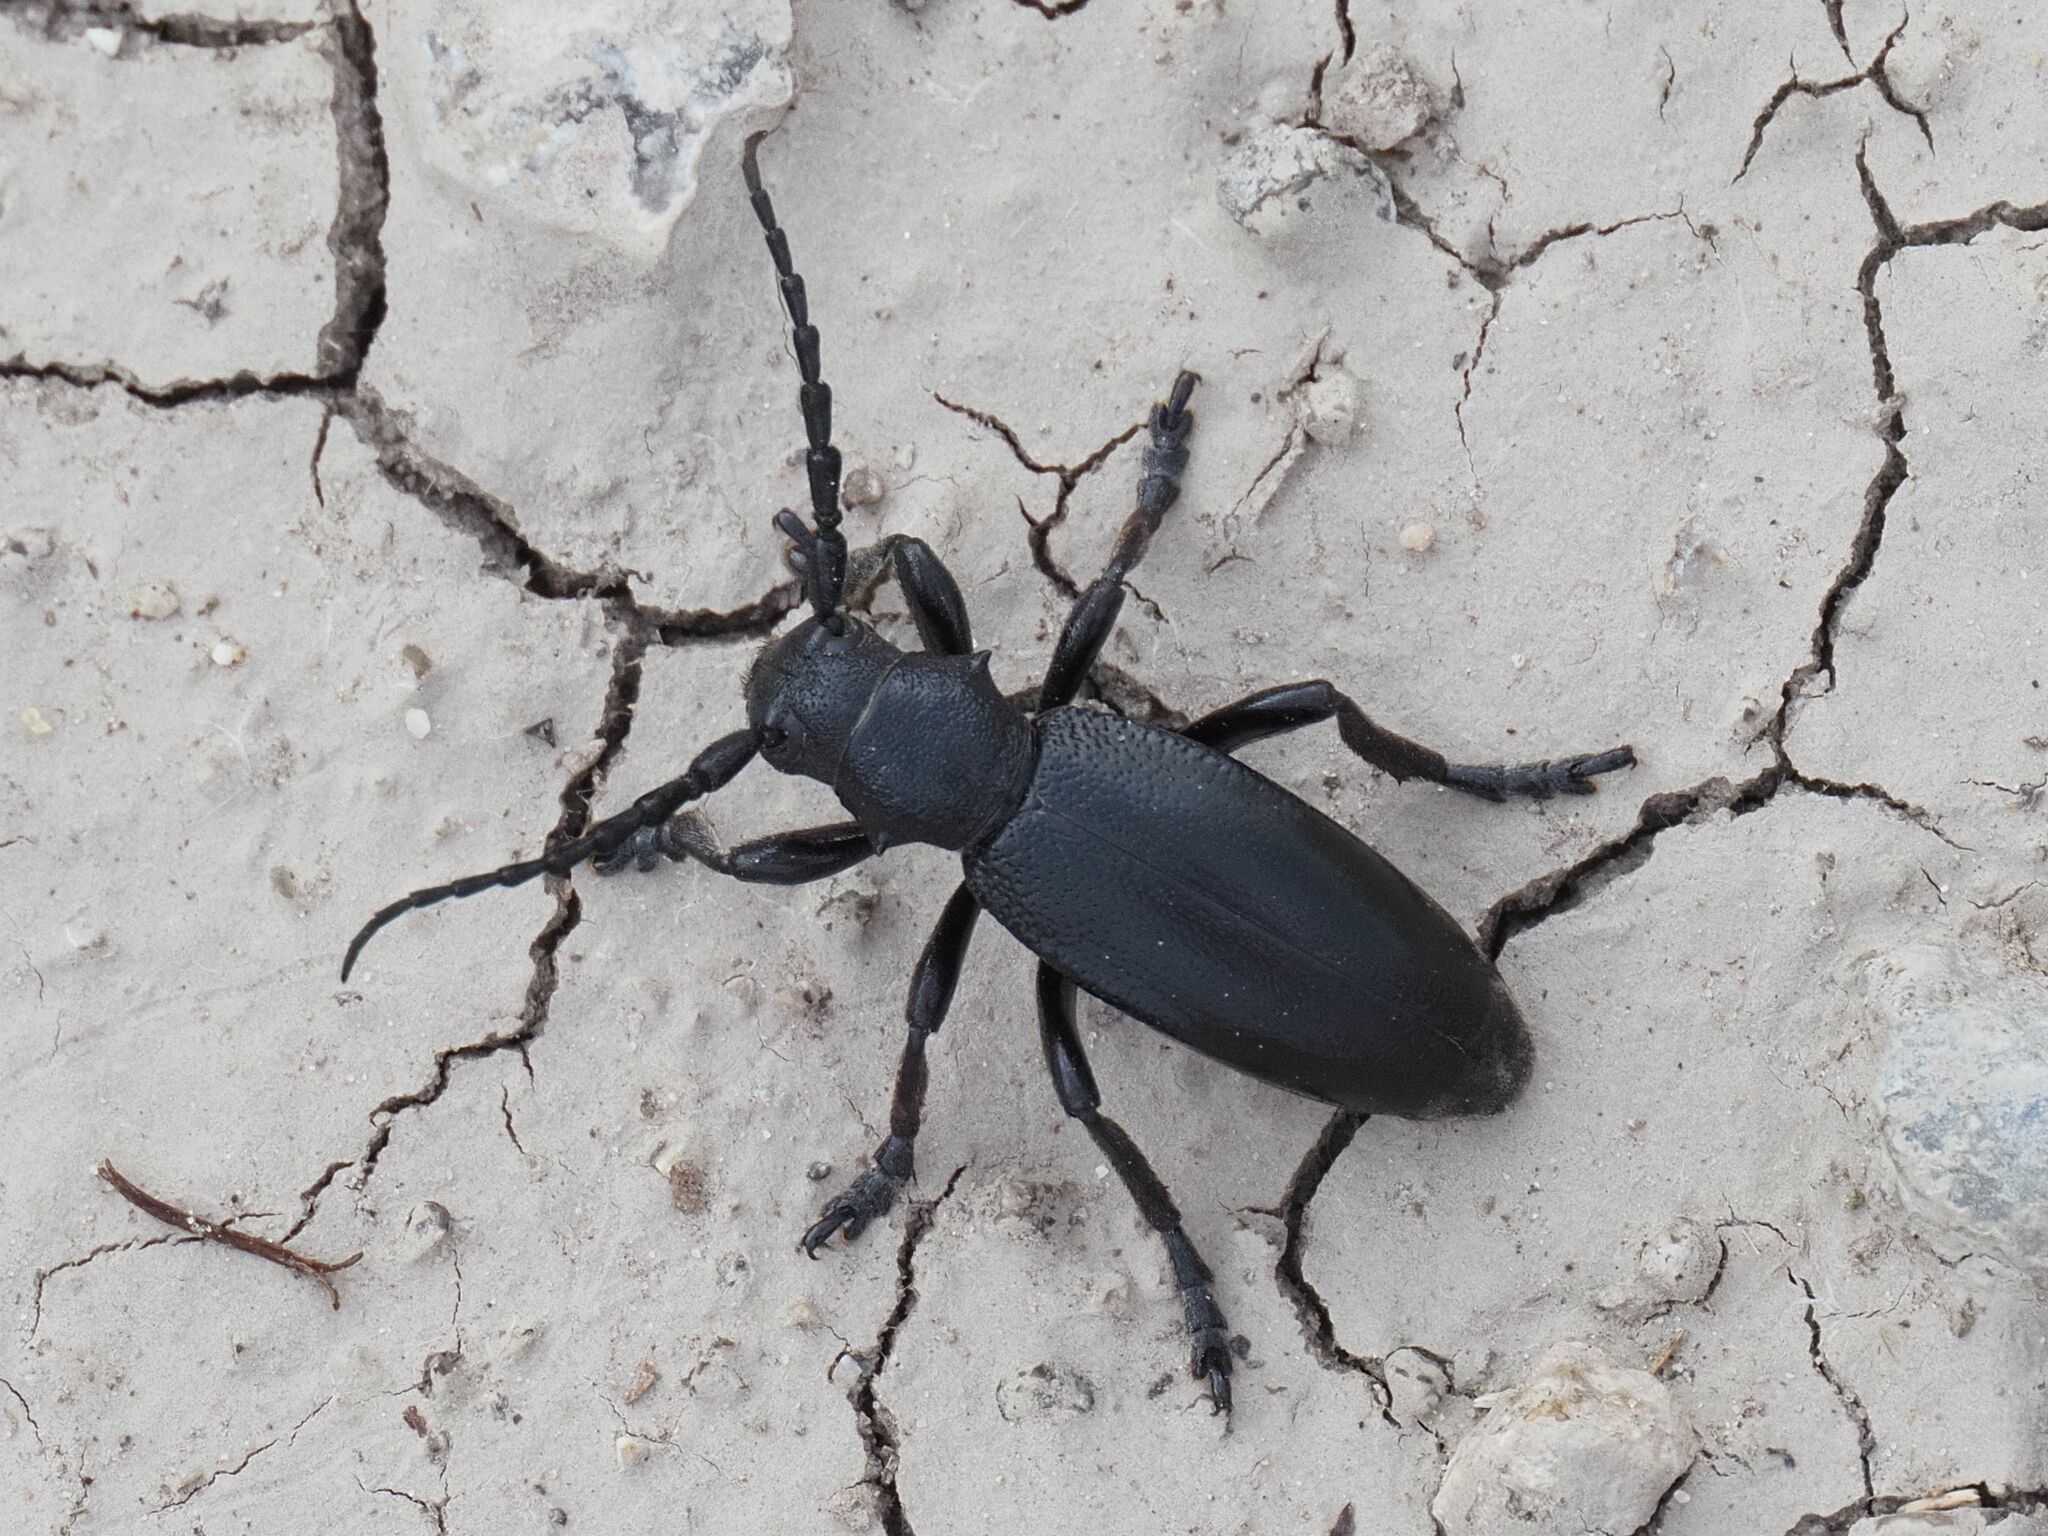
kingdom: Animalia
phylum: Arthropoda
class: Insecta
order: Coleoptera
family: Cerambycidae
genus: Dorcadion
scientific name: Dorcadion aethiops
